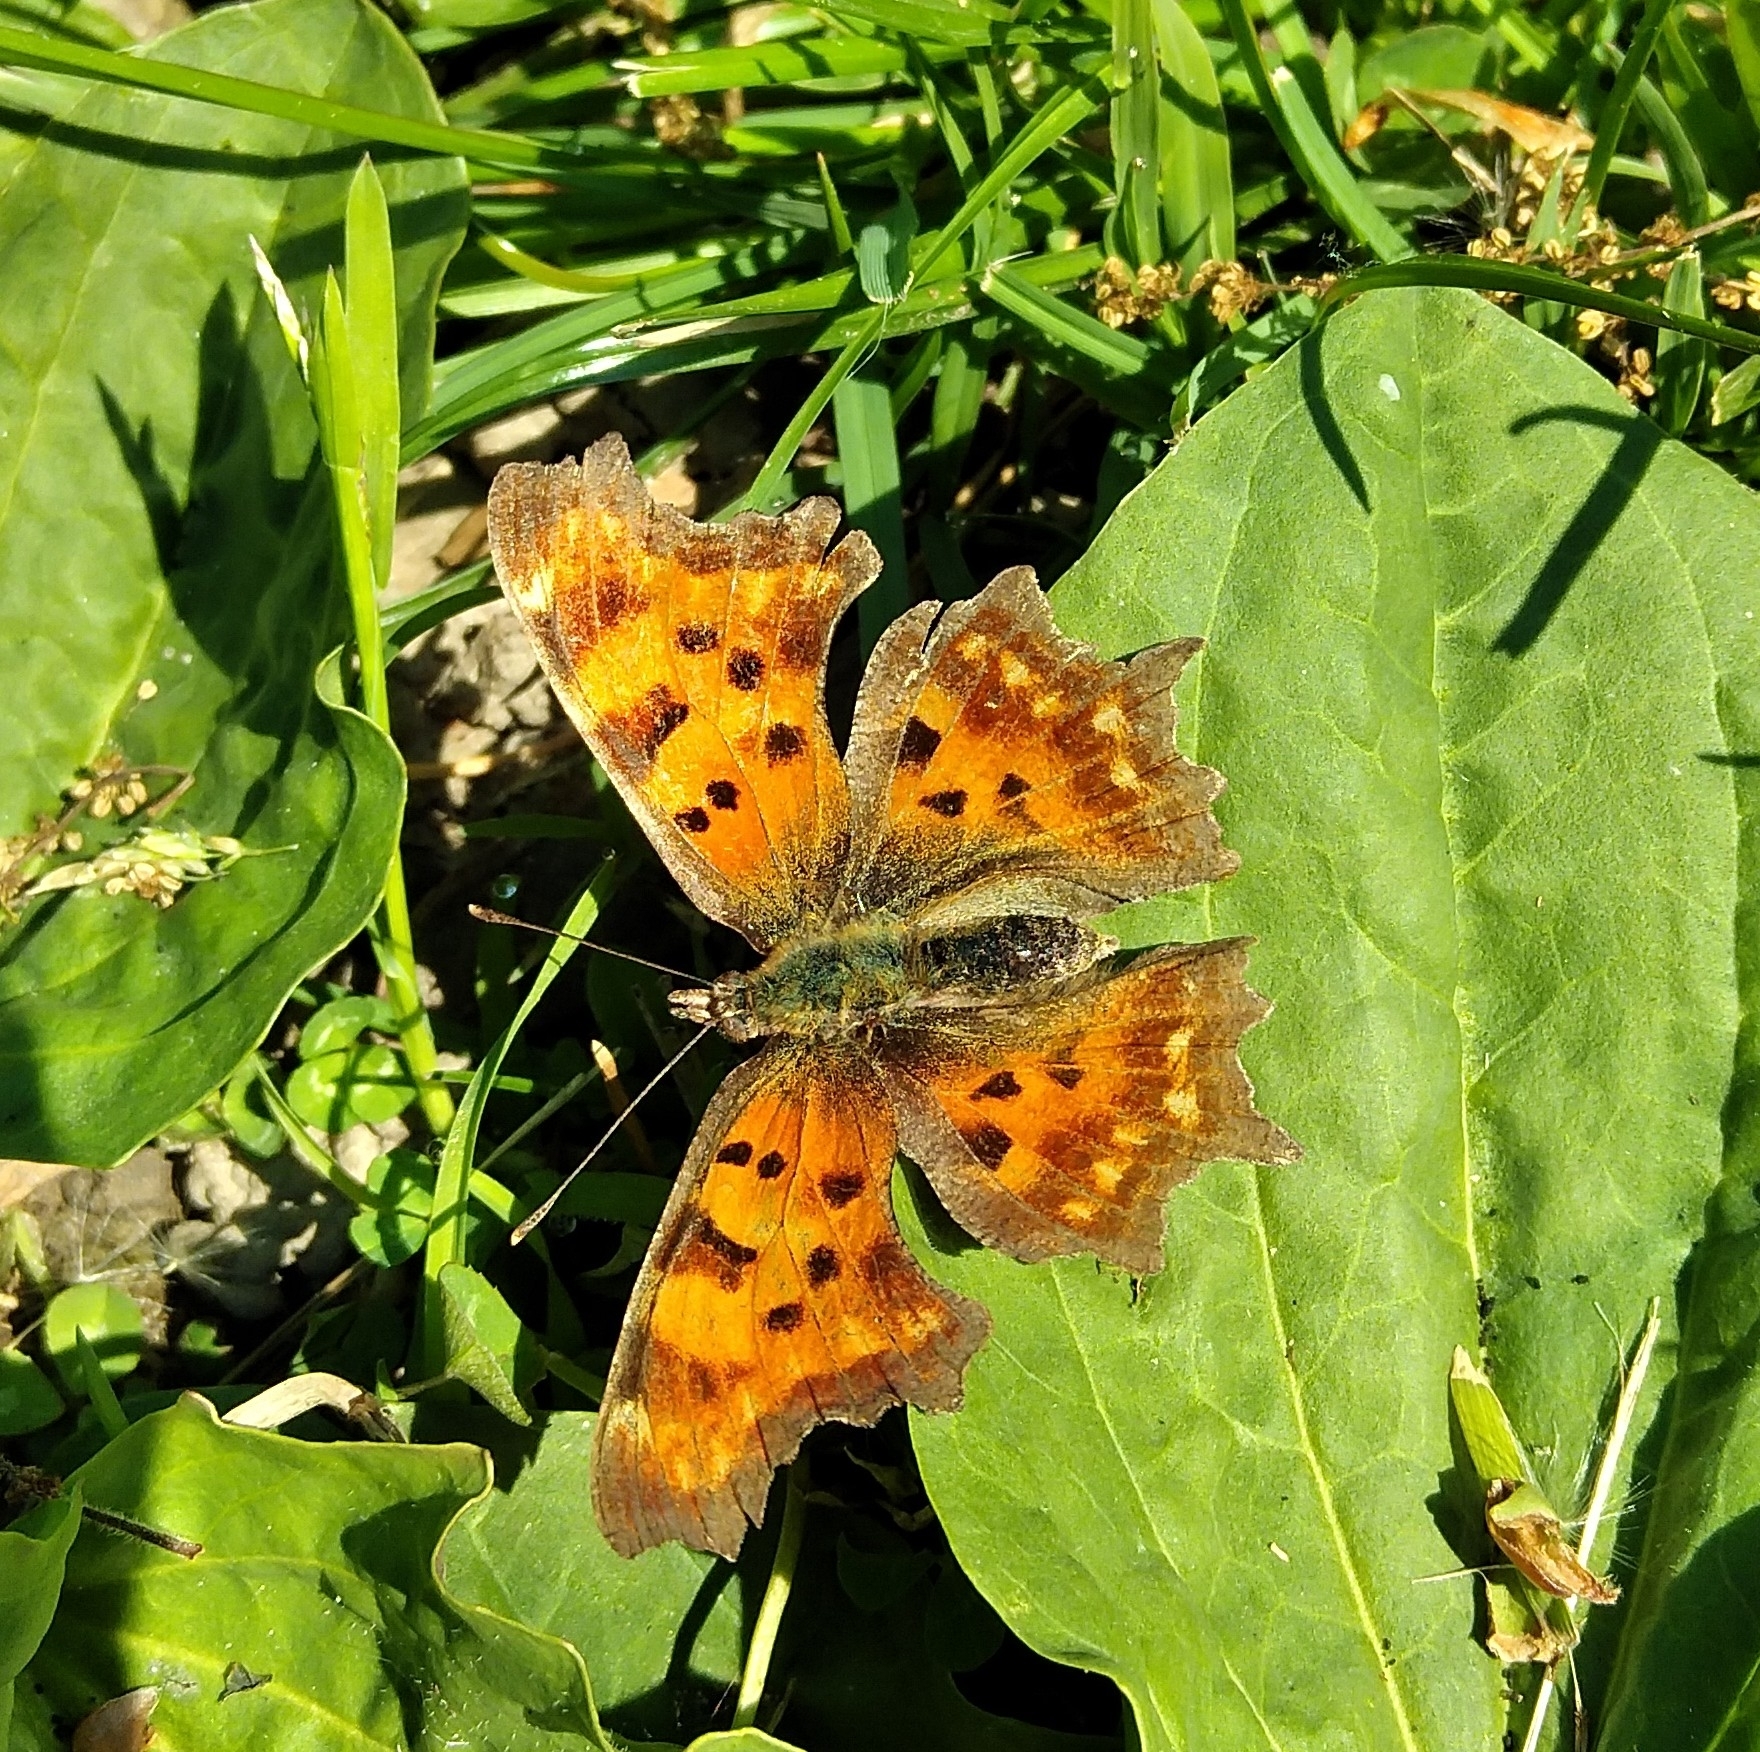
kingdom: Animalia
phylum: Arthropoda
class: Insecta
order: Lepidoptera
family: Nymphalidae
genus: Polygonia
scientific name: Polygonia c-album
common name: Comma
